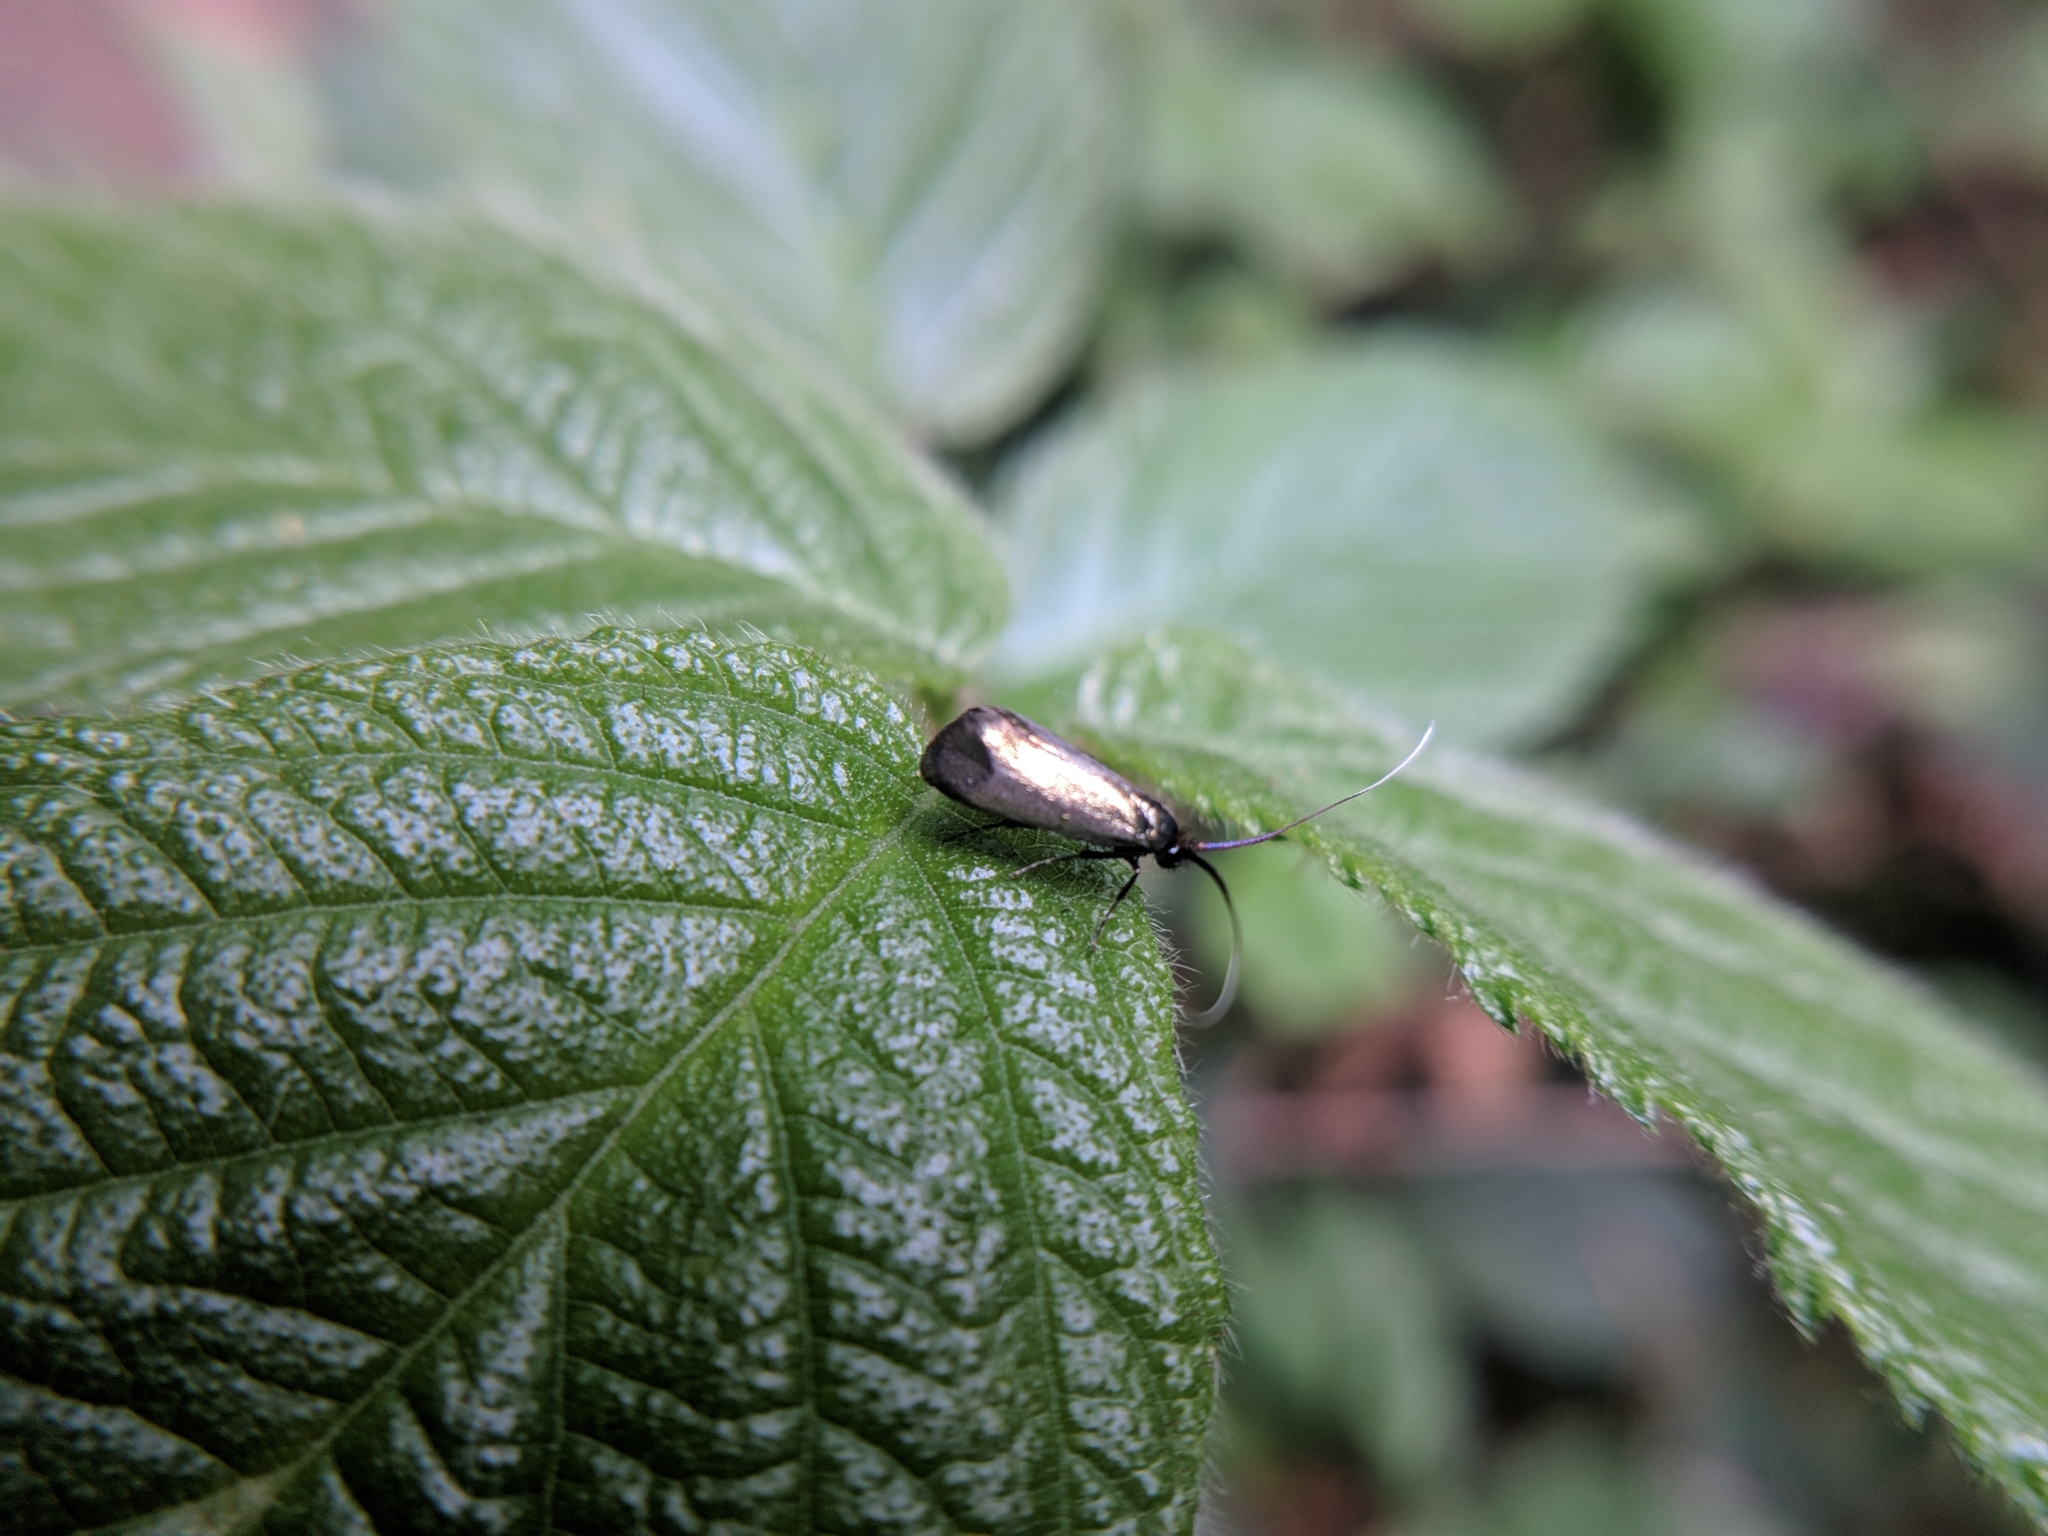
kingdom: Animalia
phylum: Arthropoda
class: Insecta
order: Lepidoptera
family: Adelidae
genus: Adela
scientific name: Adela viridella
